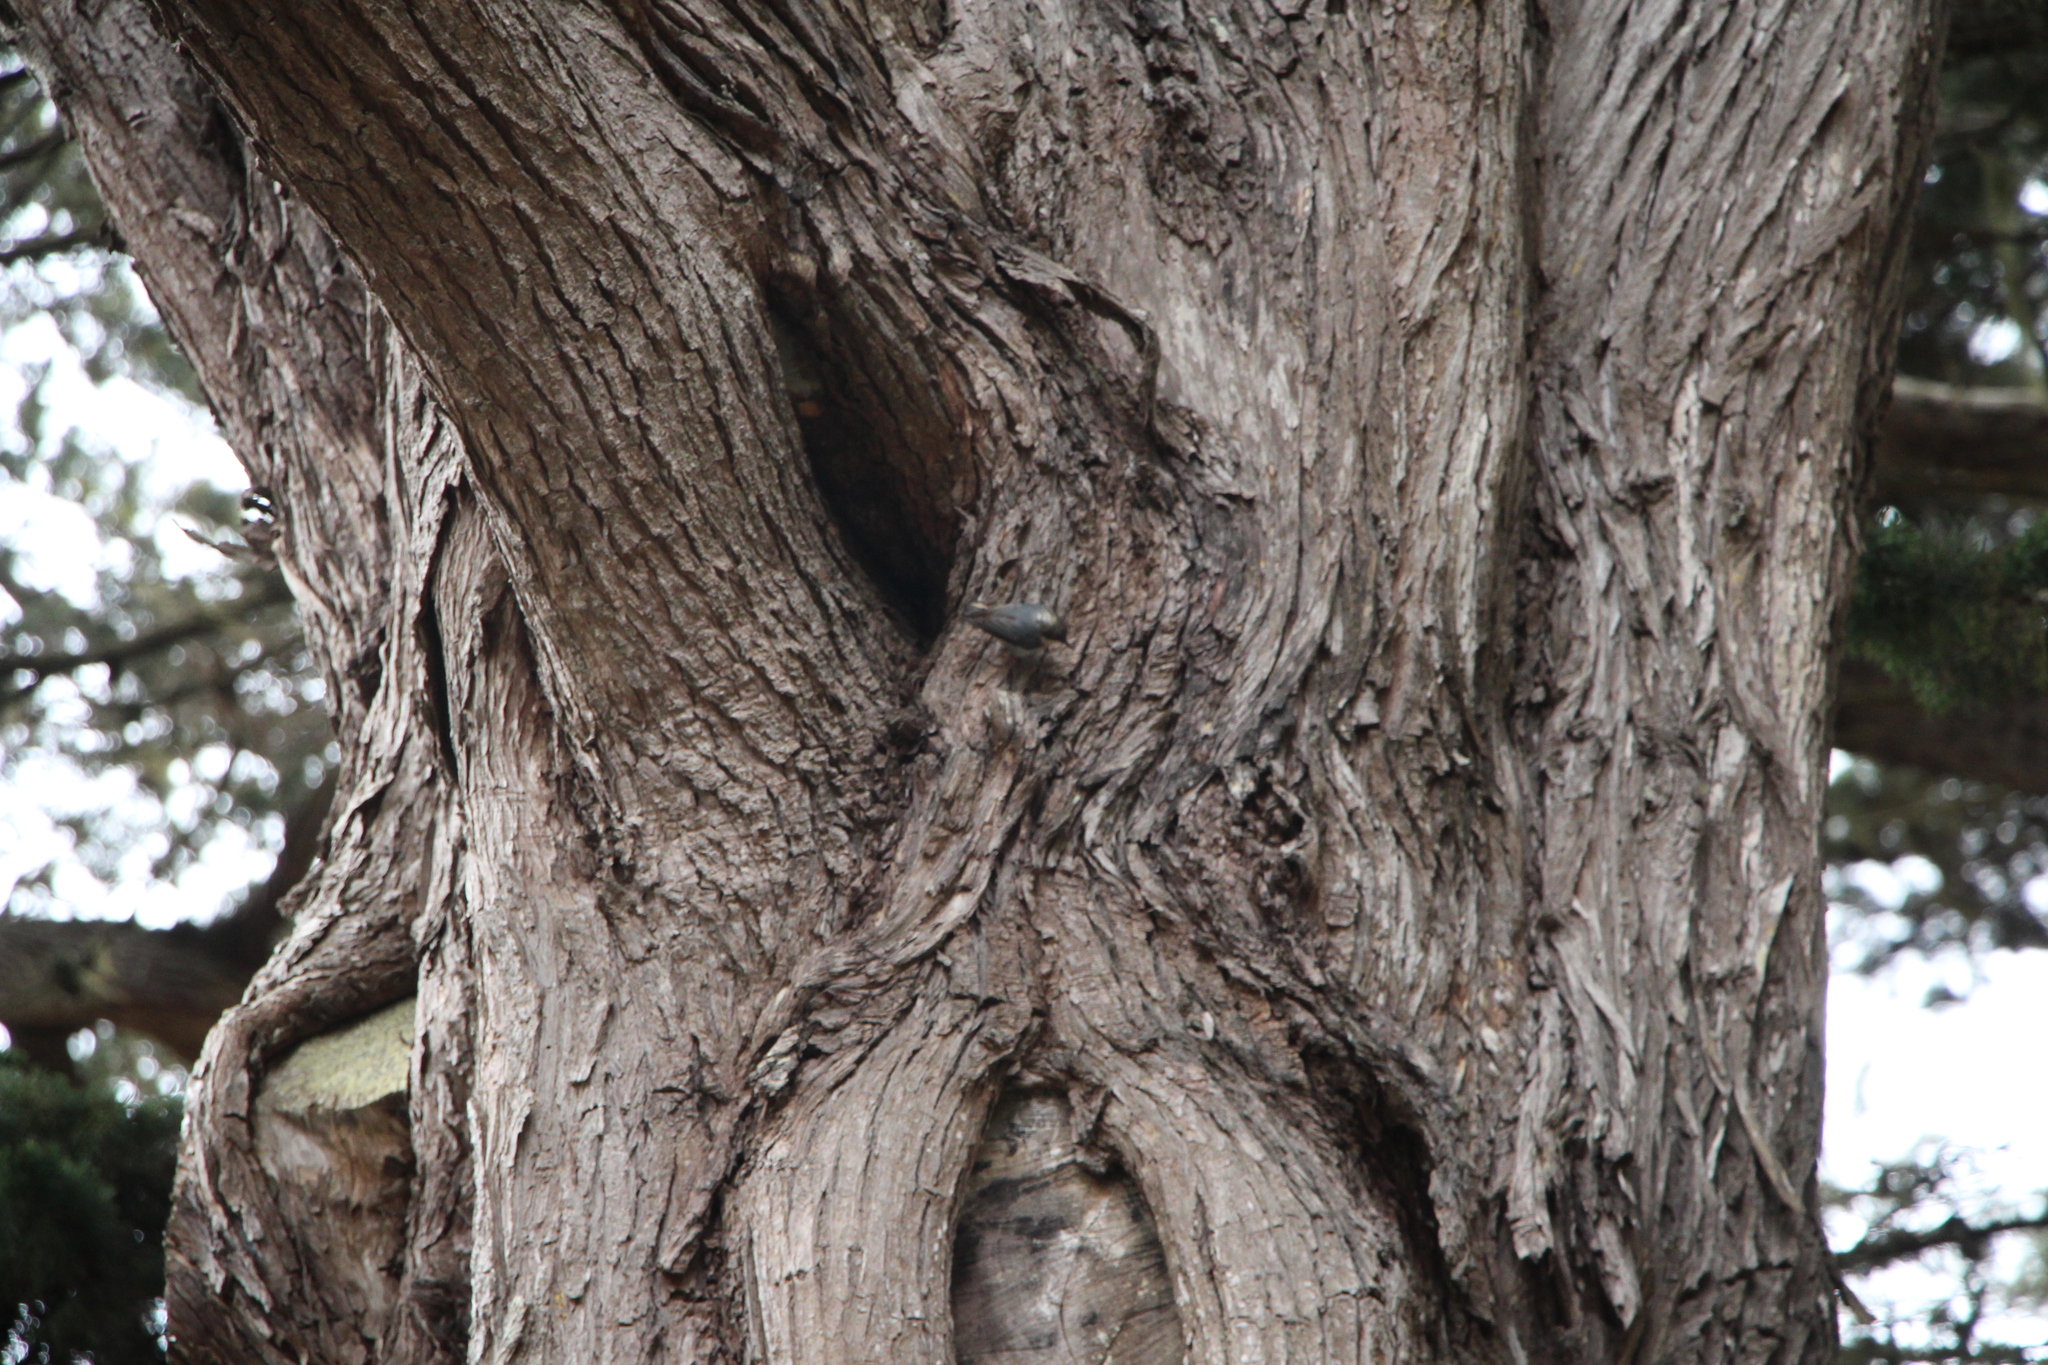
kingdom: Animalia
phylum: Chordata
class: Aves
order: Passeriformes
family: Sittidae
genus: Sitta
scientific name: Sitta pygmaea
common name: Pygmy nuthatch
